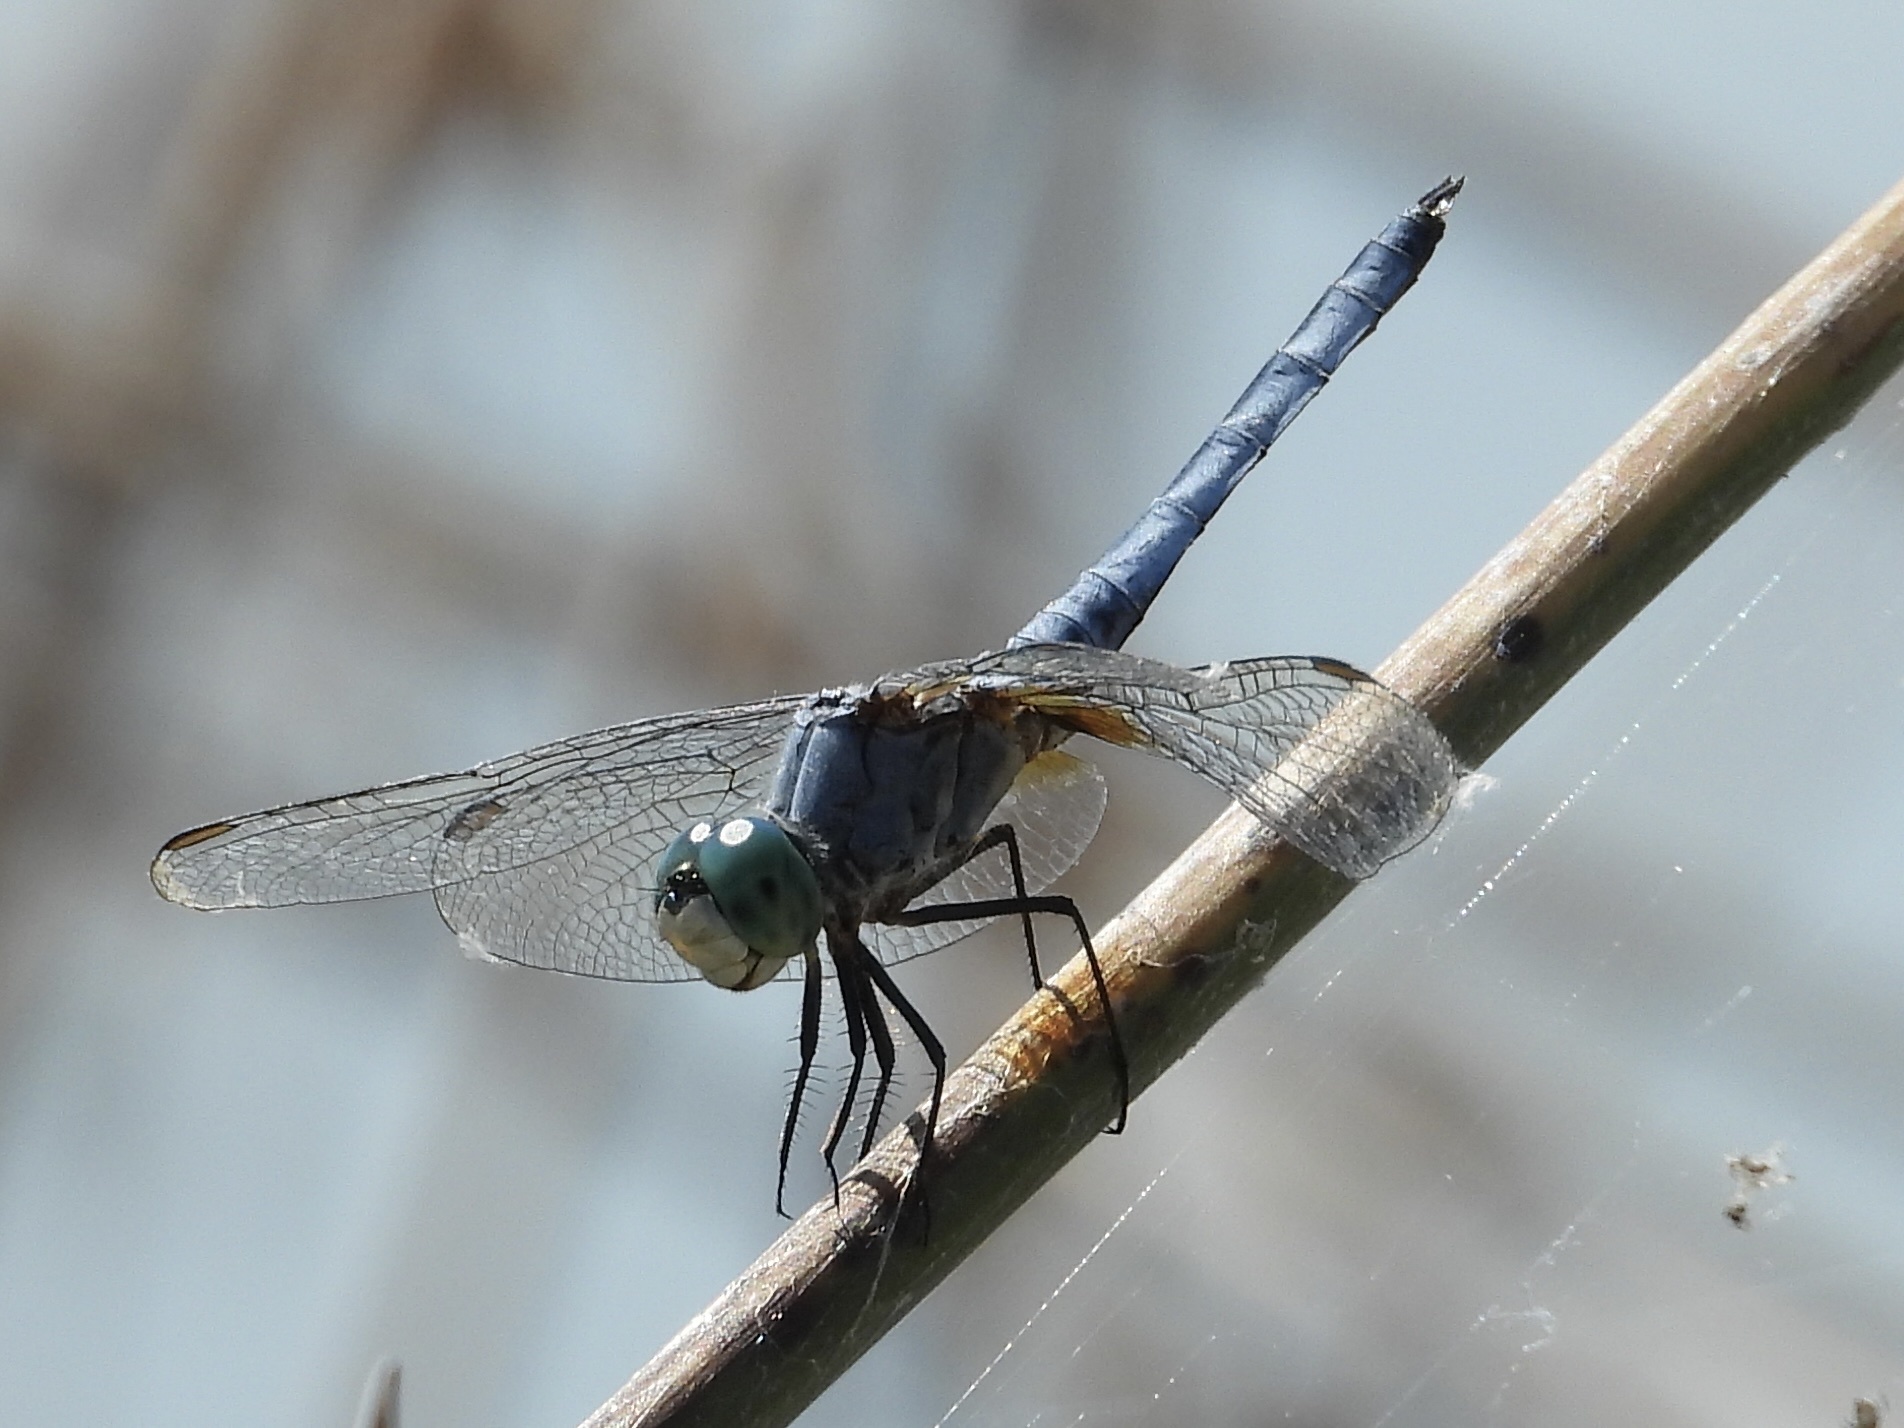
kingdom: Animalia
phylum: Arthropoda
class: Insecta
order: Odonata
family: Libellulidae
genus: Pachydiplax
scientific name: Pachydiplax longipennis
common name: Blue dasher
